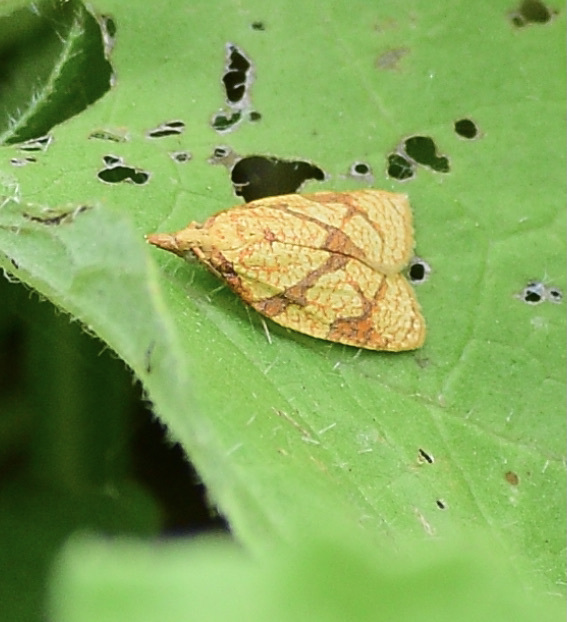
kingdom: Animalia
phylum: Arthropoda
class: Insecta
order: Lepidoptera
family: Tortricidae
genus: Cenopis
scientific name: Cenopis reticulatana
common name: Reticulated fruitworm moth
